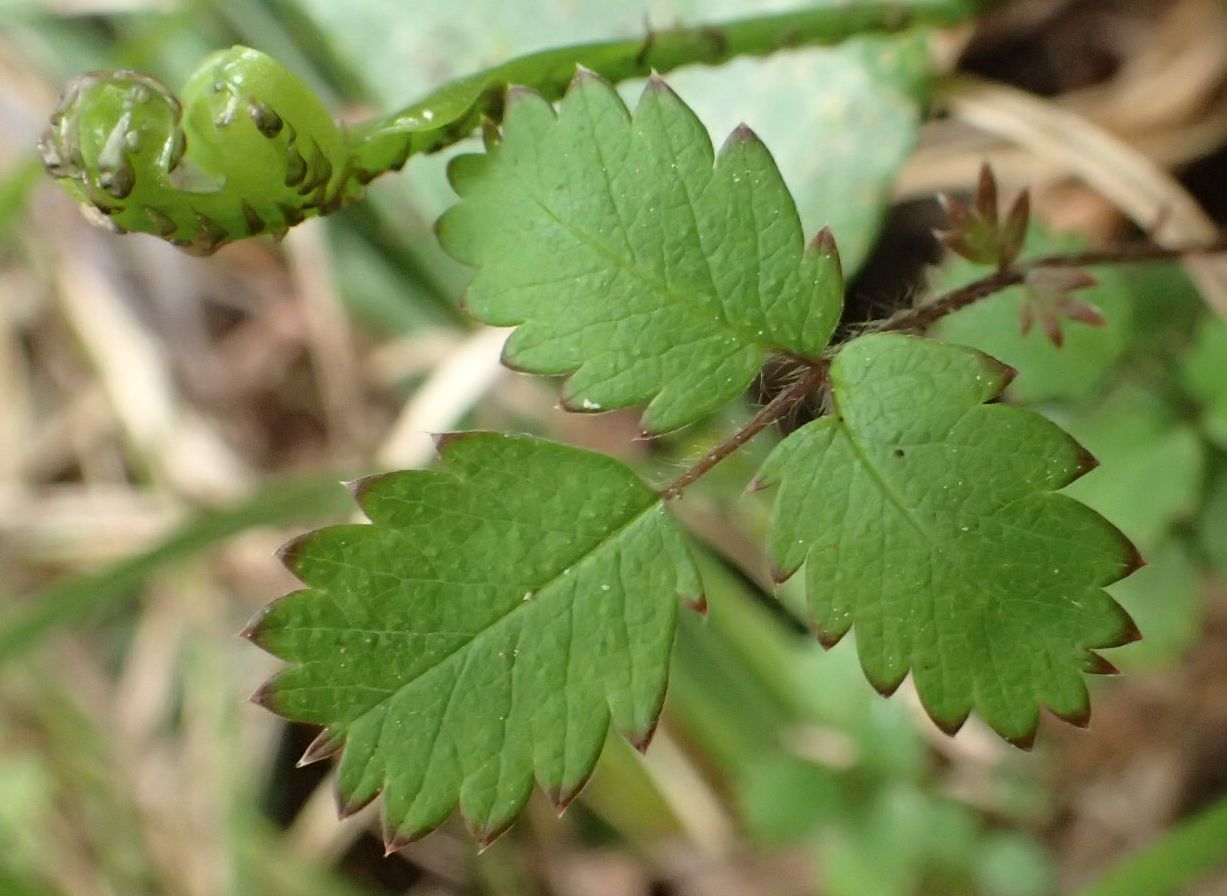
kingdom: Plantae
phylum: Tracheophyta
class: Magnoliopsida
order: Rosales
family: Rosaceae
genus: Acaena
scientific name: Acaena juvenca
